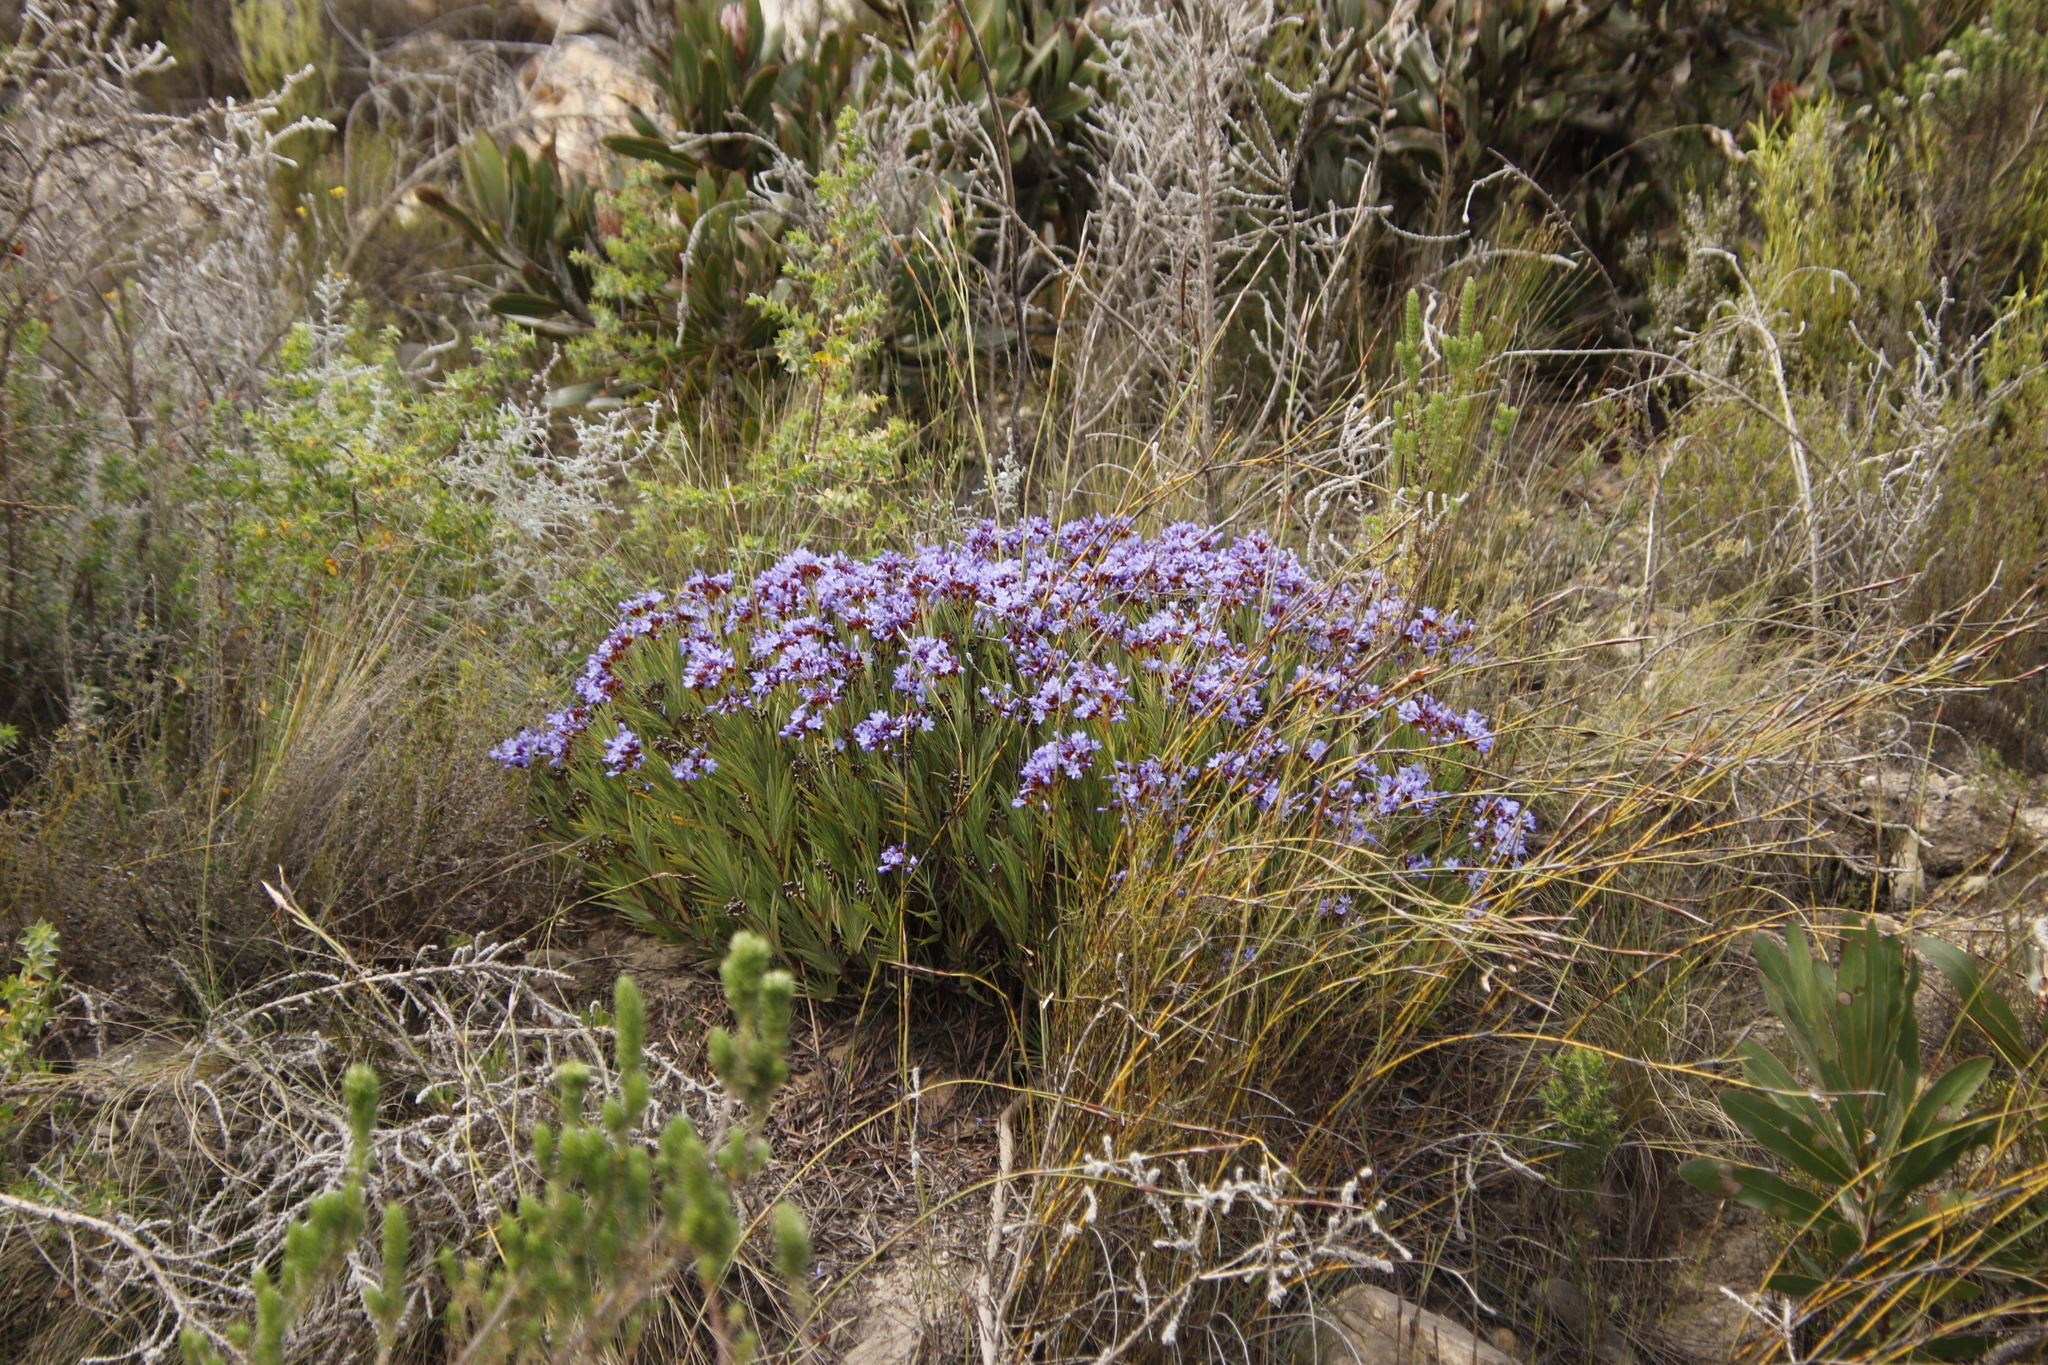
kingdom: Plantae
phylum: Tracheophyta
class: Liliopsida
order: Asparagales
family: Iridaceae
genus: Nivenia
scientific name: Nivenia binata
